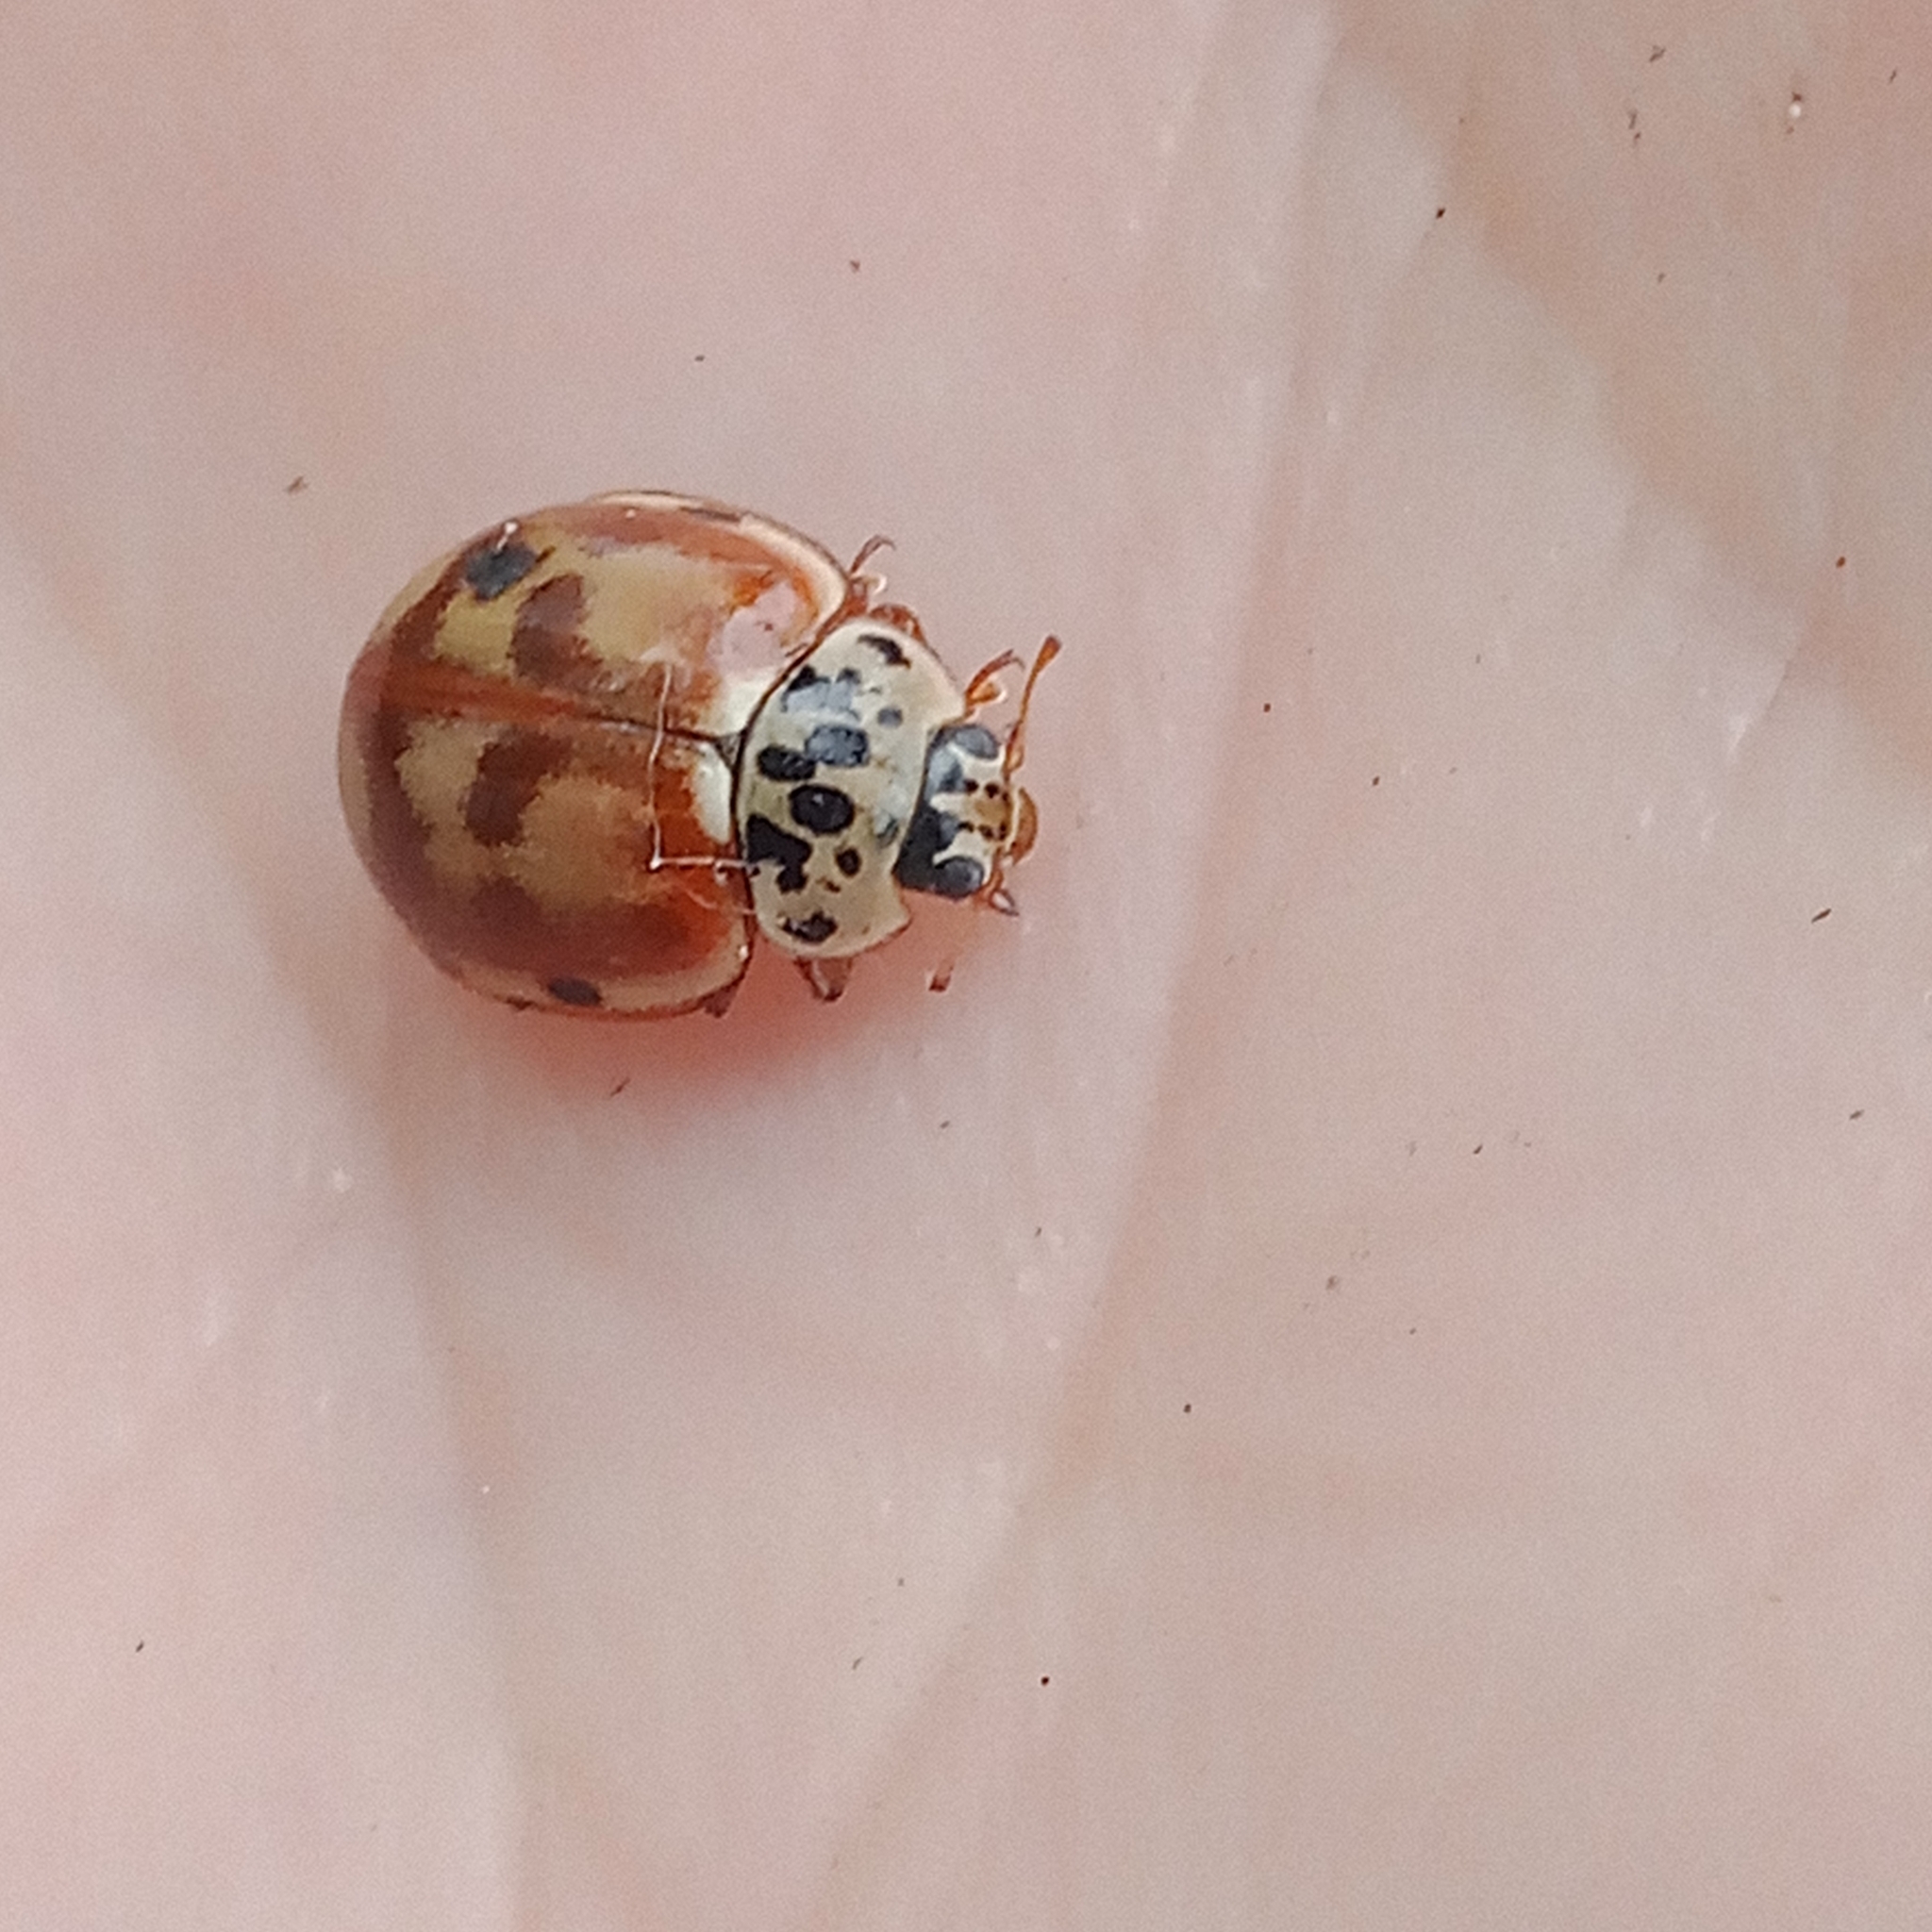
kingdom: Animalia
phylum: Arthropoda
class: Insecta
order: Coleoptera
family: Coccinellidae
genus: Harmonia
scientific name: Harmonia quadripunctata
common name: Cream-streaked ladybird
